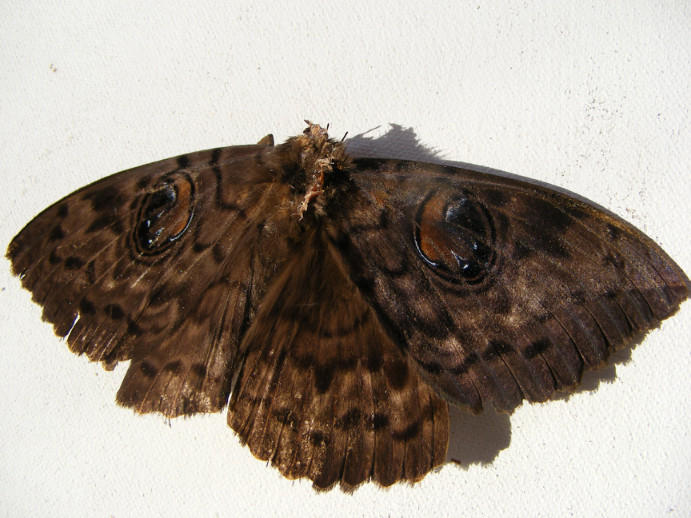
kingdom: Animalia
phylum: Arthropoda
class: Insecta
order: Lepidoptera
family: Erebidae
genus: Erebus
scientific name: Erebus walkeri
